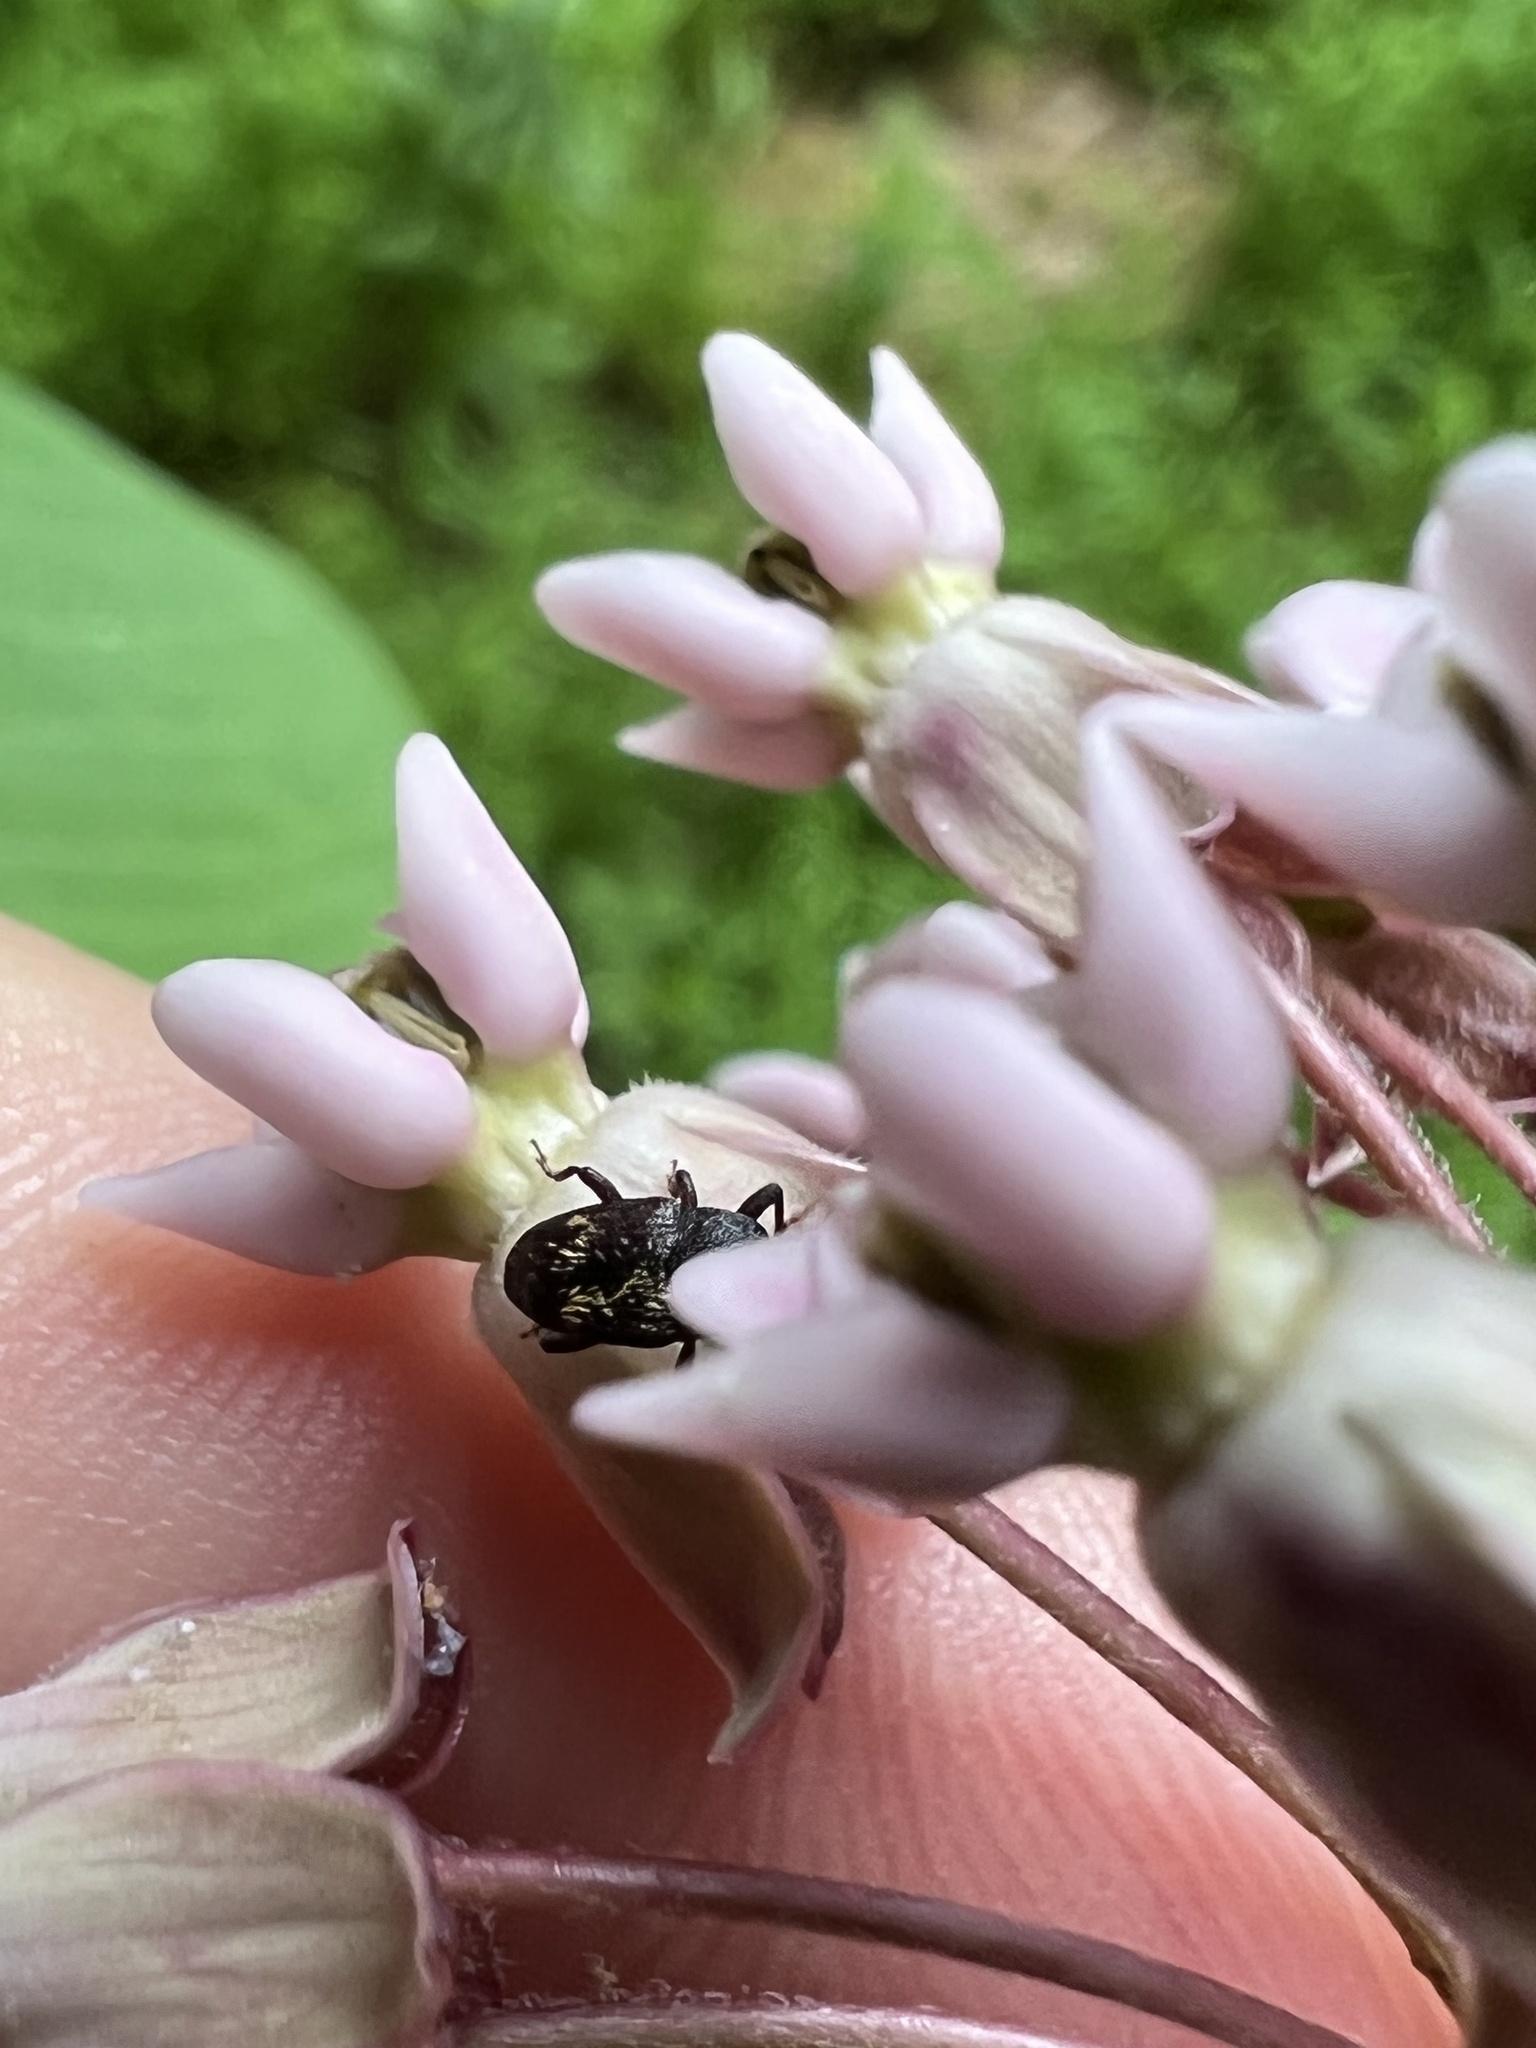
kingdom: Animalia
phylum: Arthropoda
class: Insecta
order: Coleoptera
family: Curculionidae
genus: Glyptobaris
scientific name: Glyptobaris lecontei
